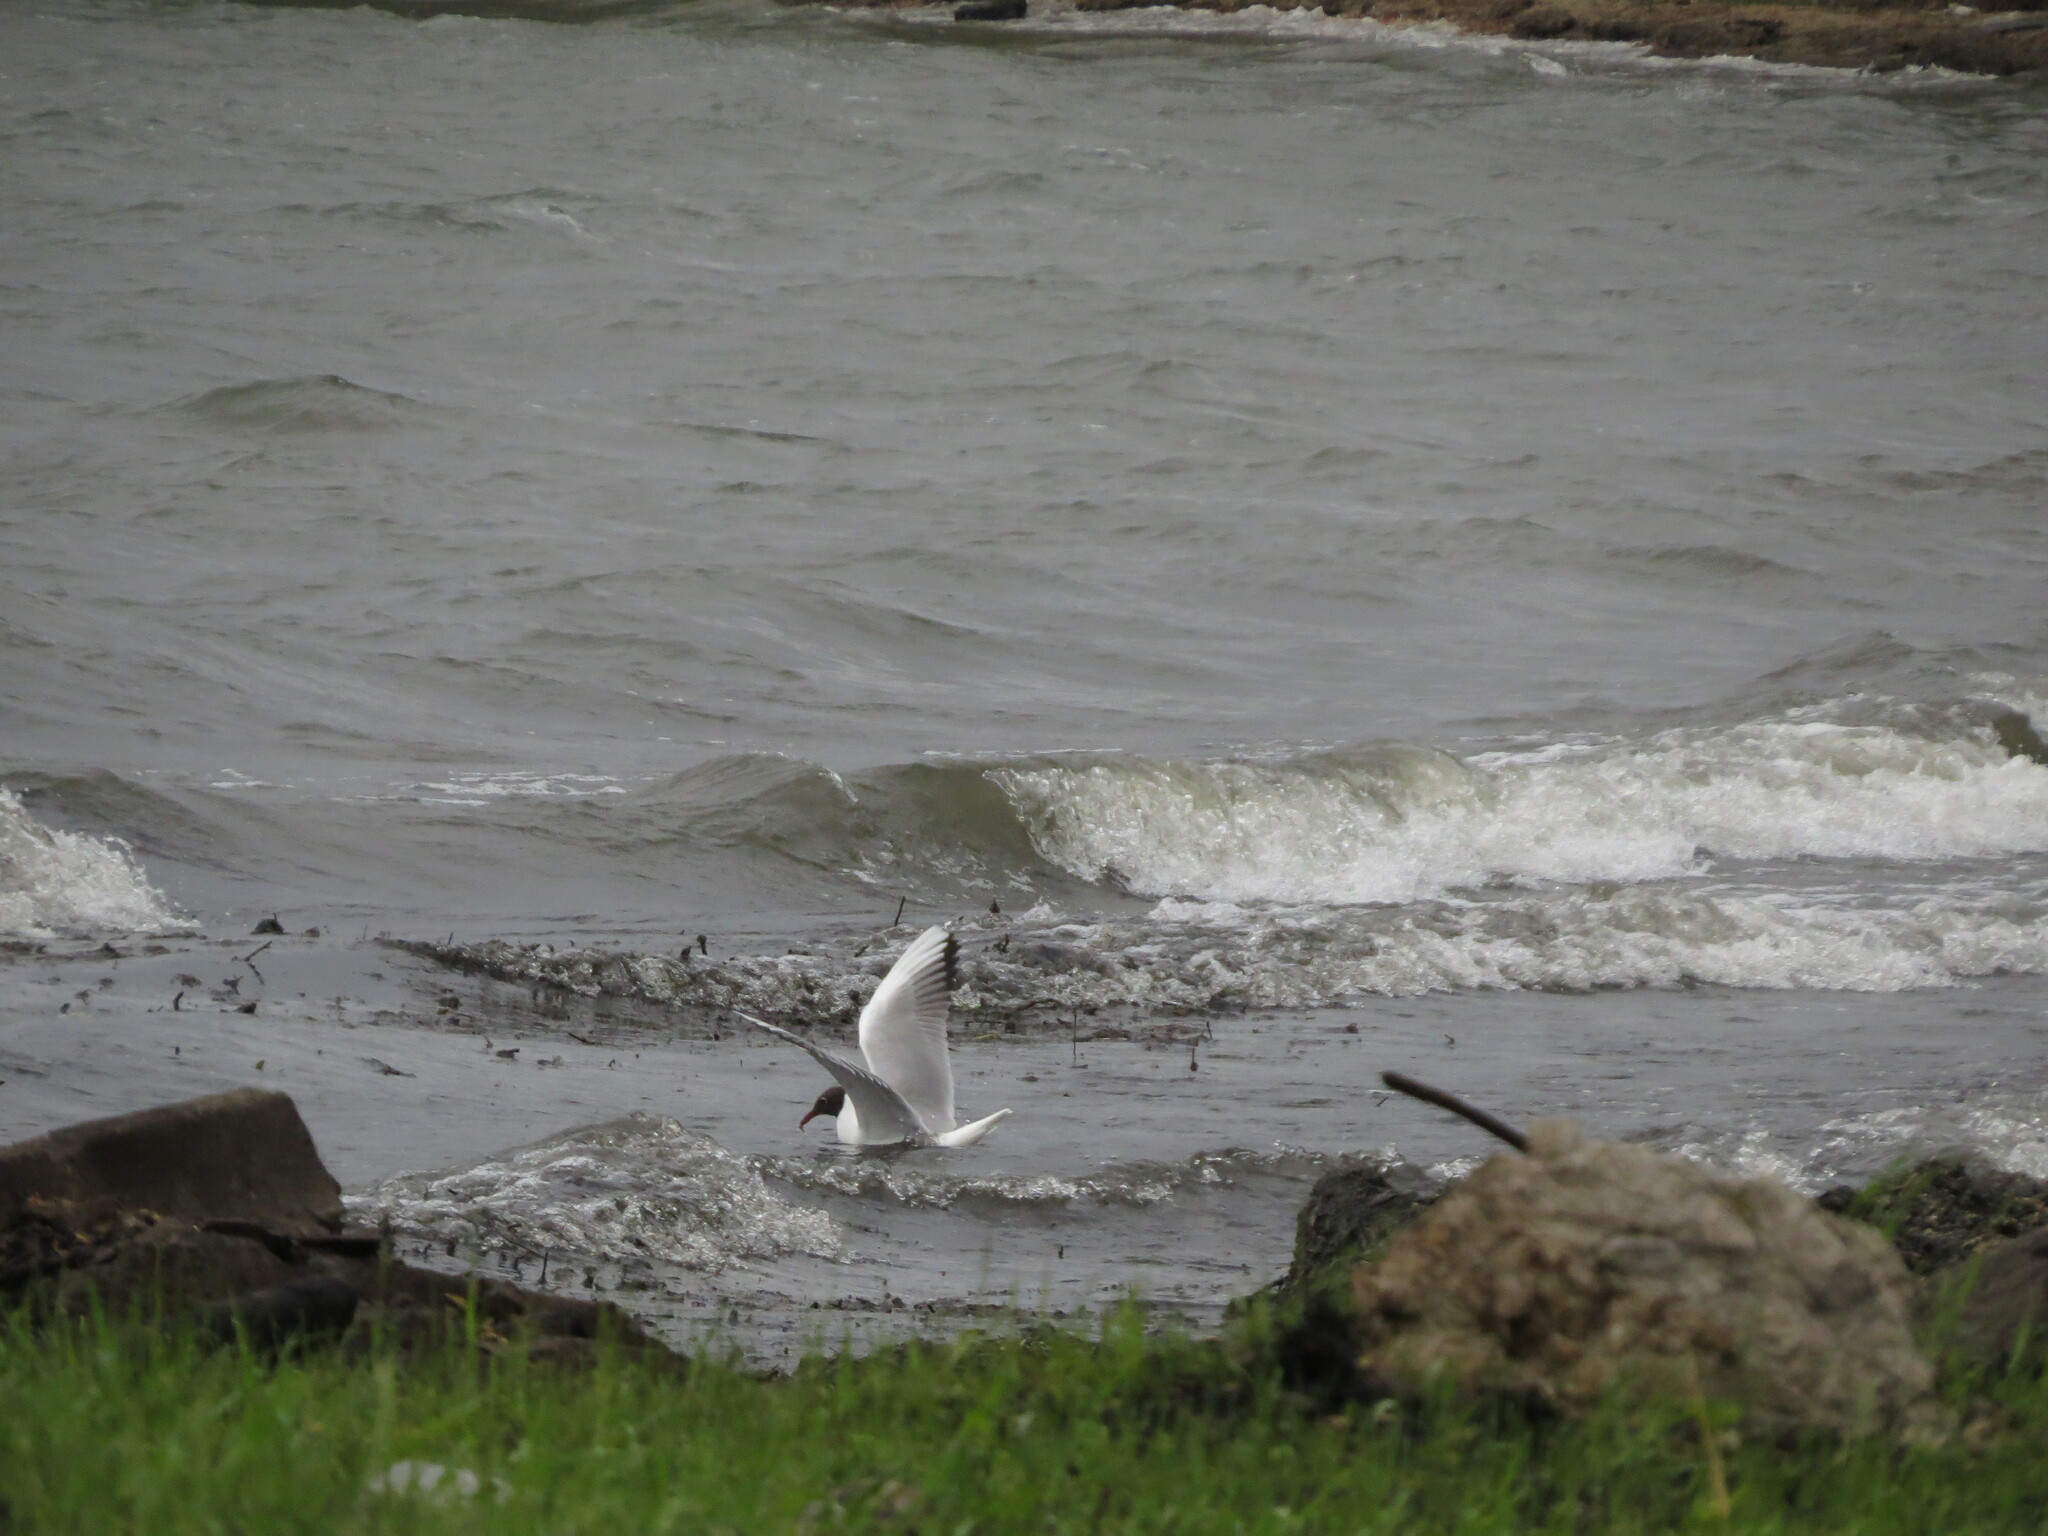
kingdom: Animalia
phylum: Chordata
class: Aves
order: Charadriiformes
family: Laridae
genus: Chroicocephalus
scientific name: Chroicocephalus ridibundus
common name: Black-headed gull
